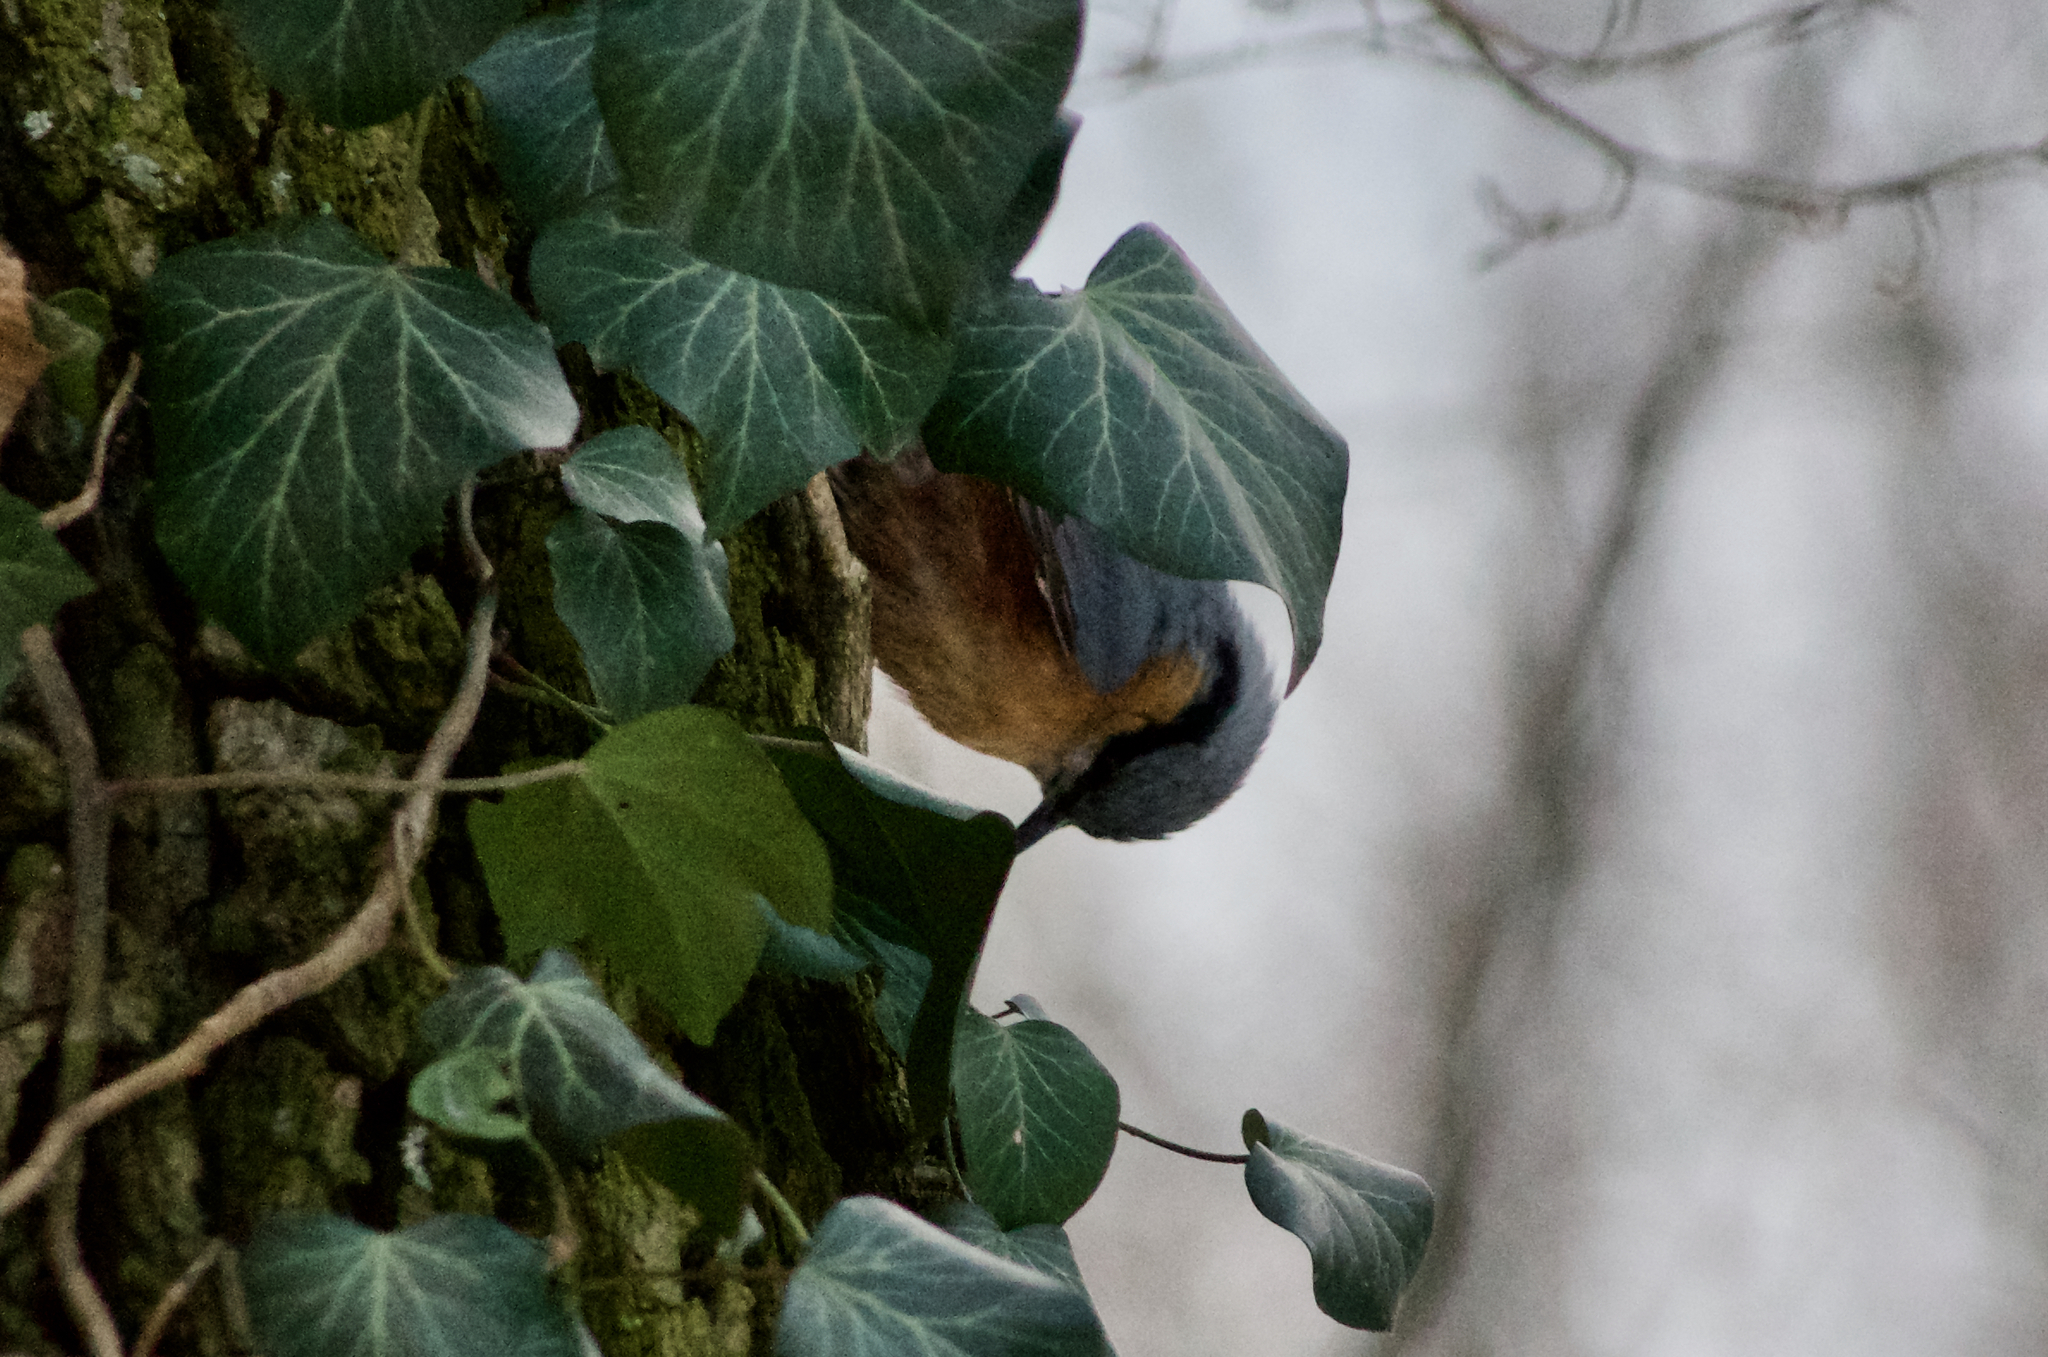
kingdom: Animalia
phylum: Chordata
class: Aves
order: Passeriformes
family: Sittidae
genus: Sitta
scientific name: Sitta europaea
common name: Eurasian nuthatch
